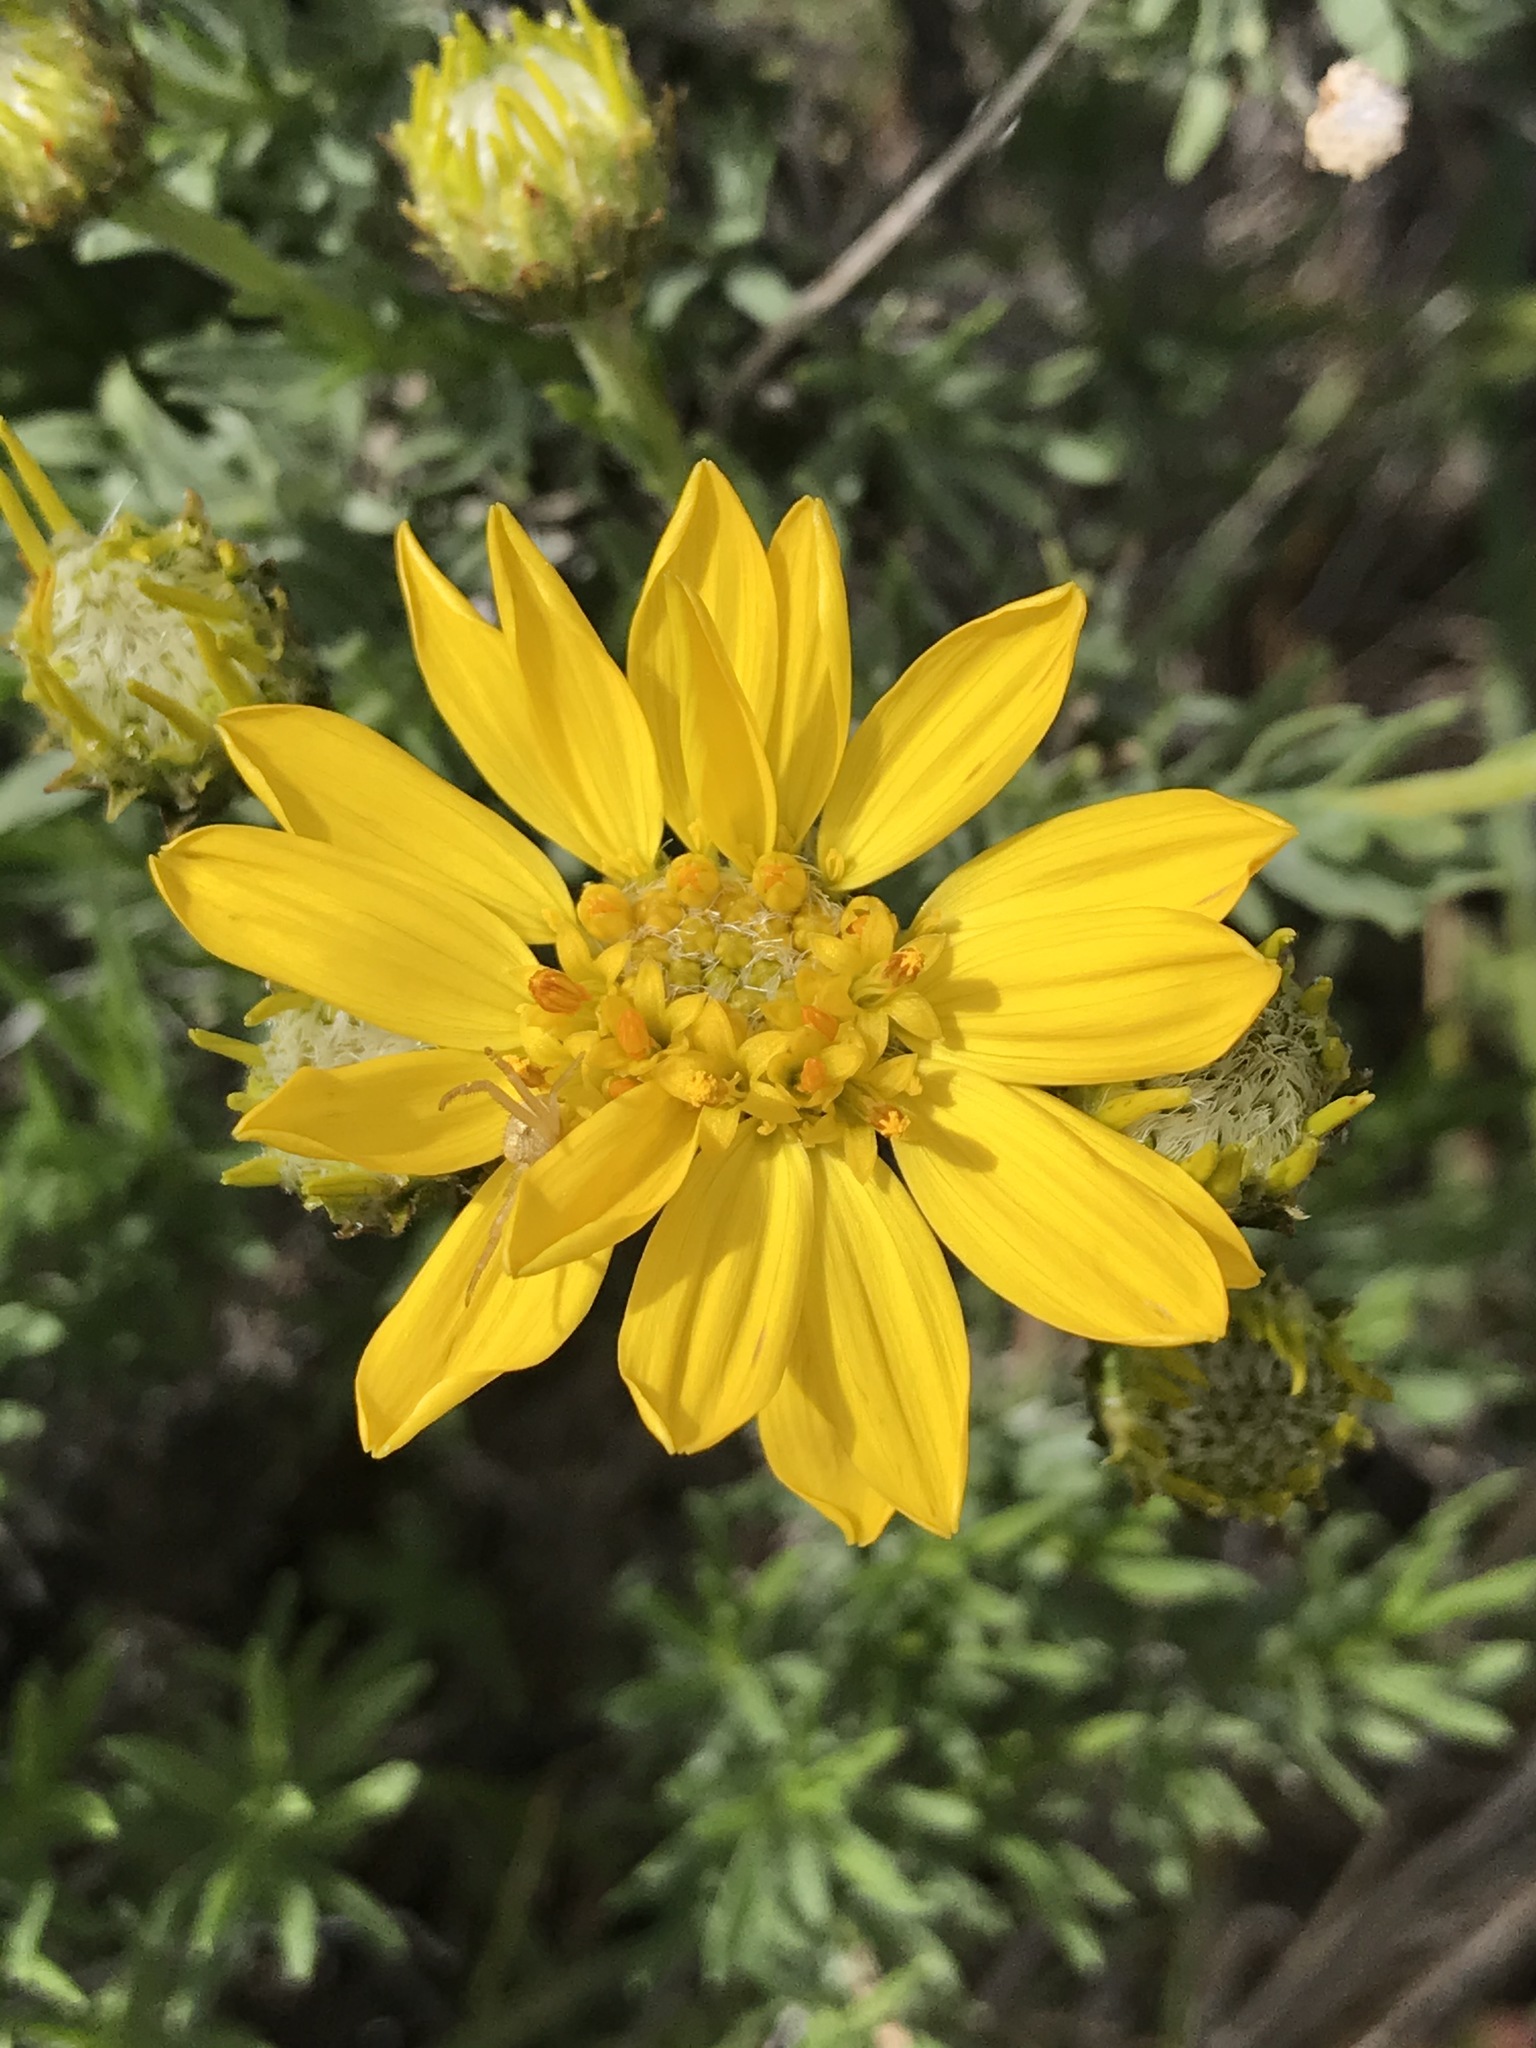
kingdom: Plantae
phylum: Tracheophyta
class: Magnoliopsida
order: Asterales
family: Asteraceae
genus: Ericameria
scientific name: Ericameria linearifolia
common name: Interior goldenbush
